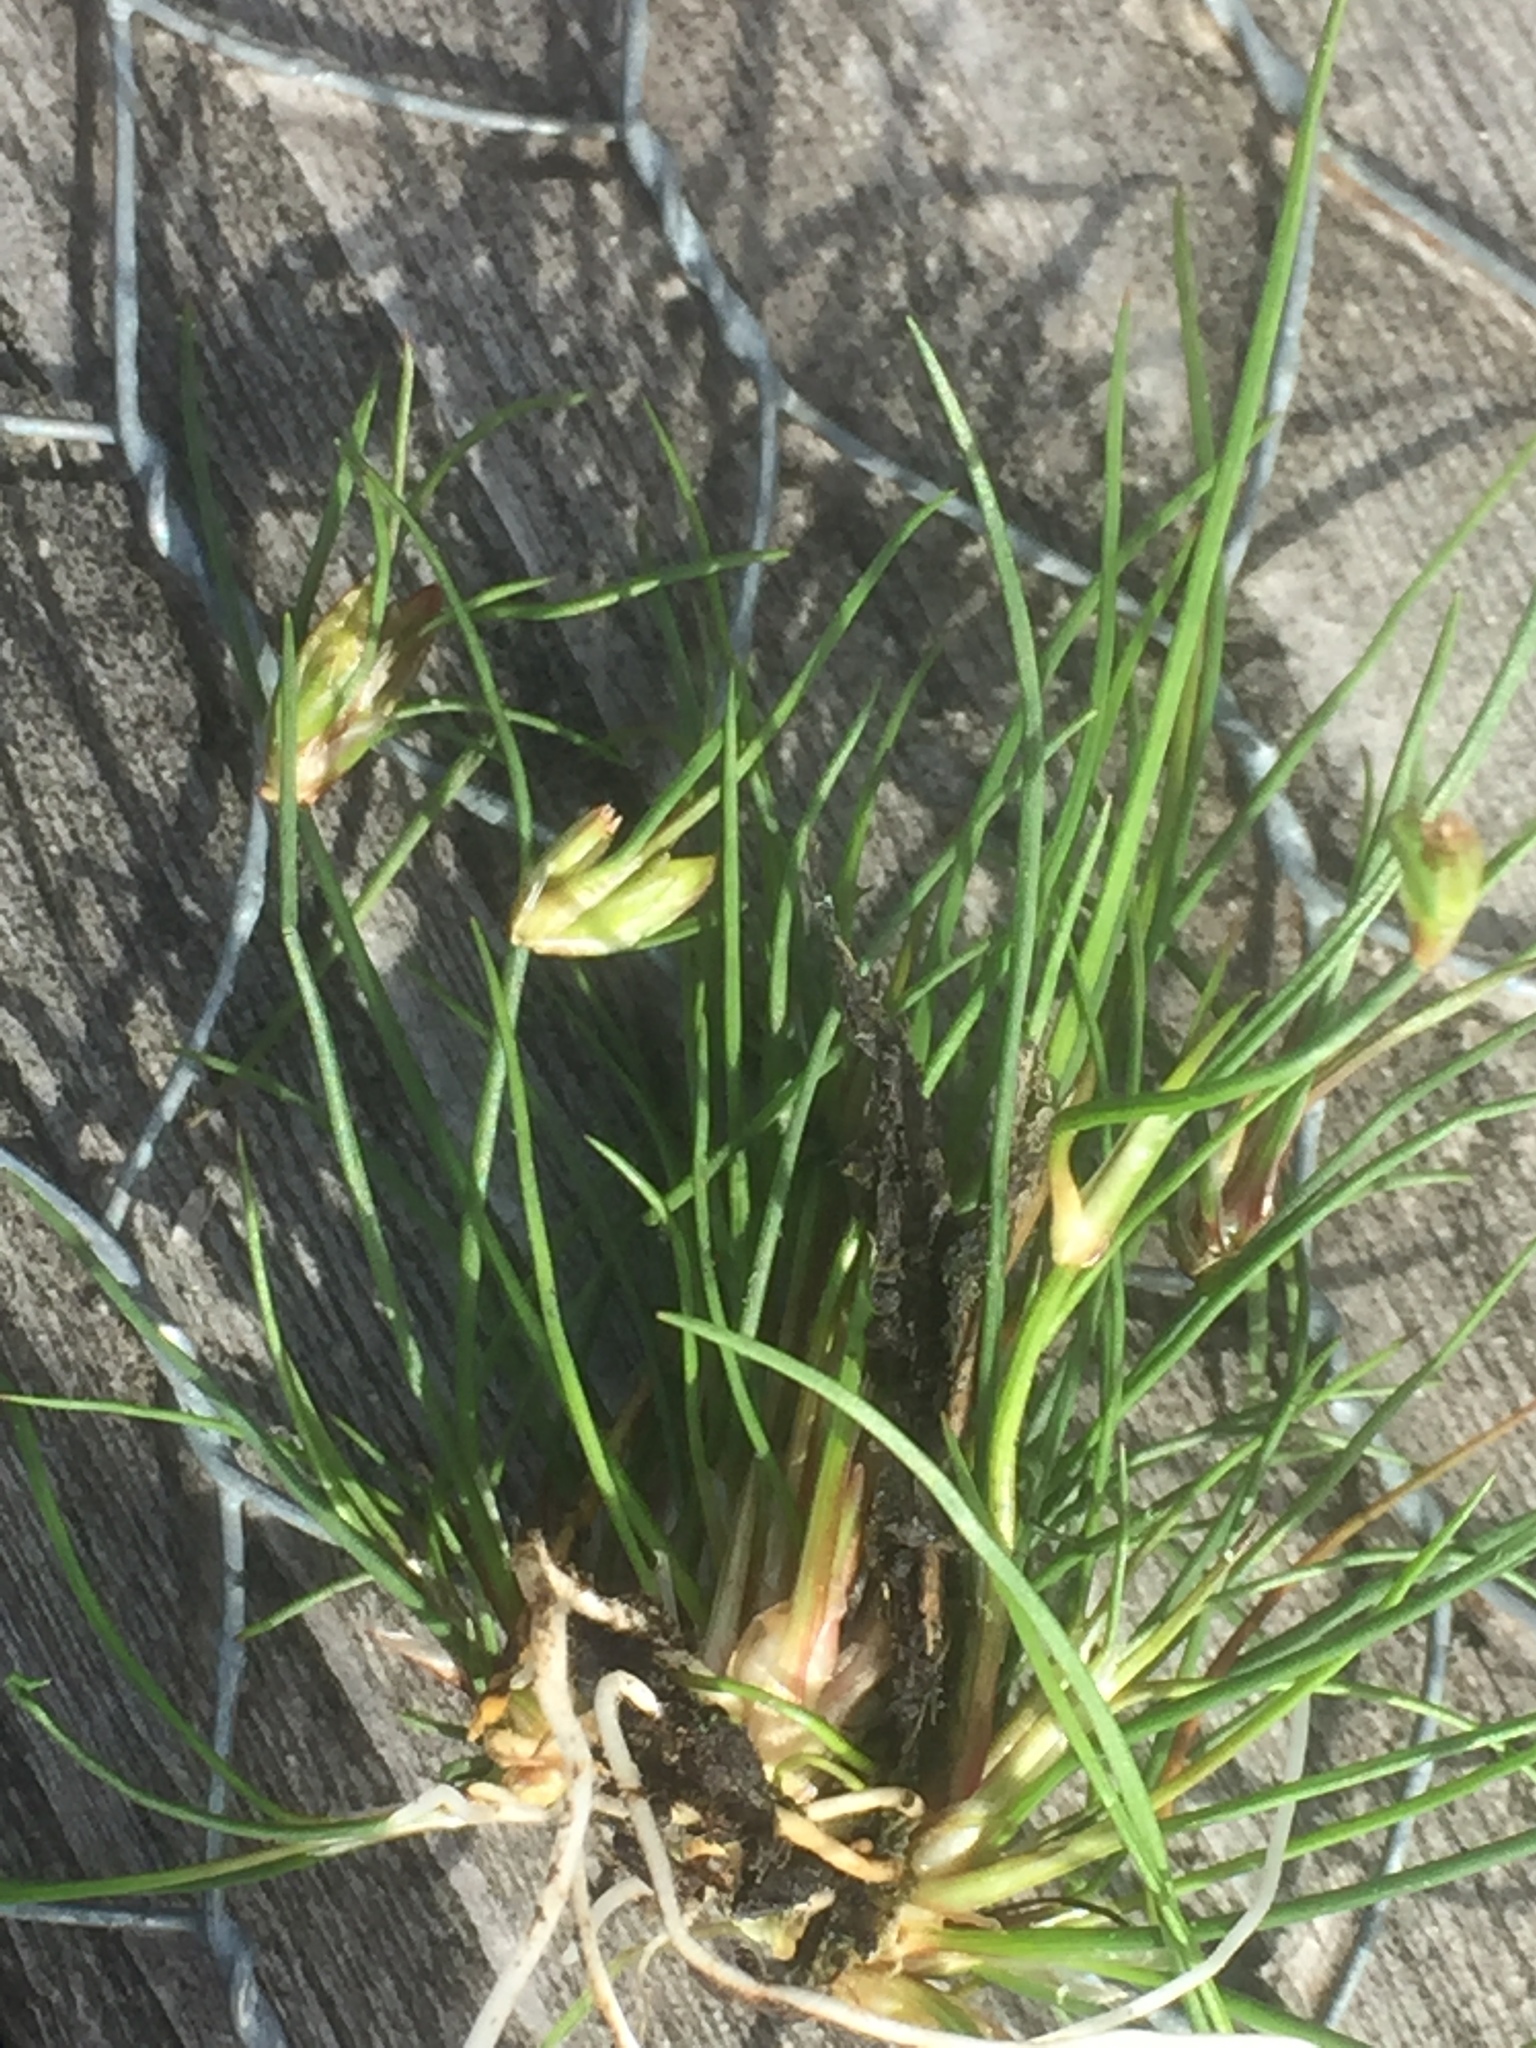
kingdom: Plantae
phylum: Tracheophyta
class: Liliopsida
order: Poales
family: Juncaceae
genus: Juncus
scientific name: Juncus bulbosus
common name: Bulbous rush
